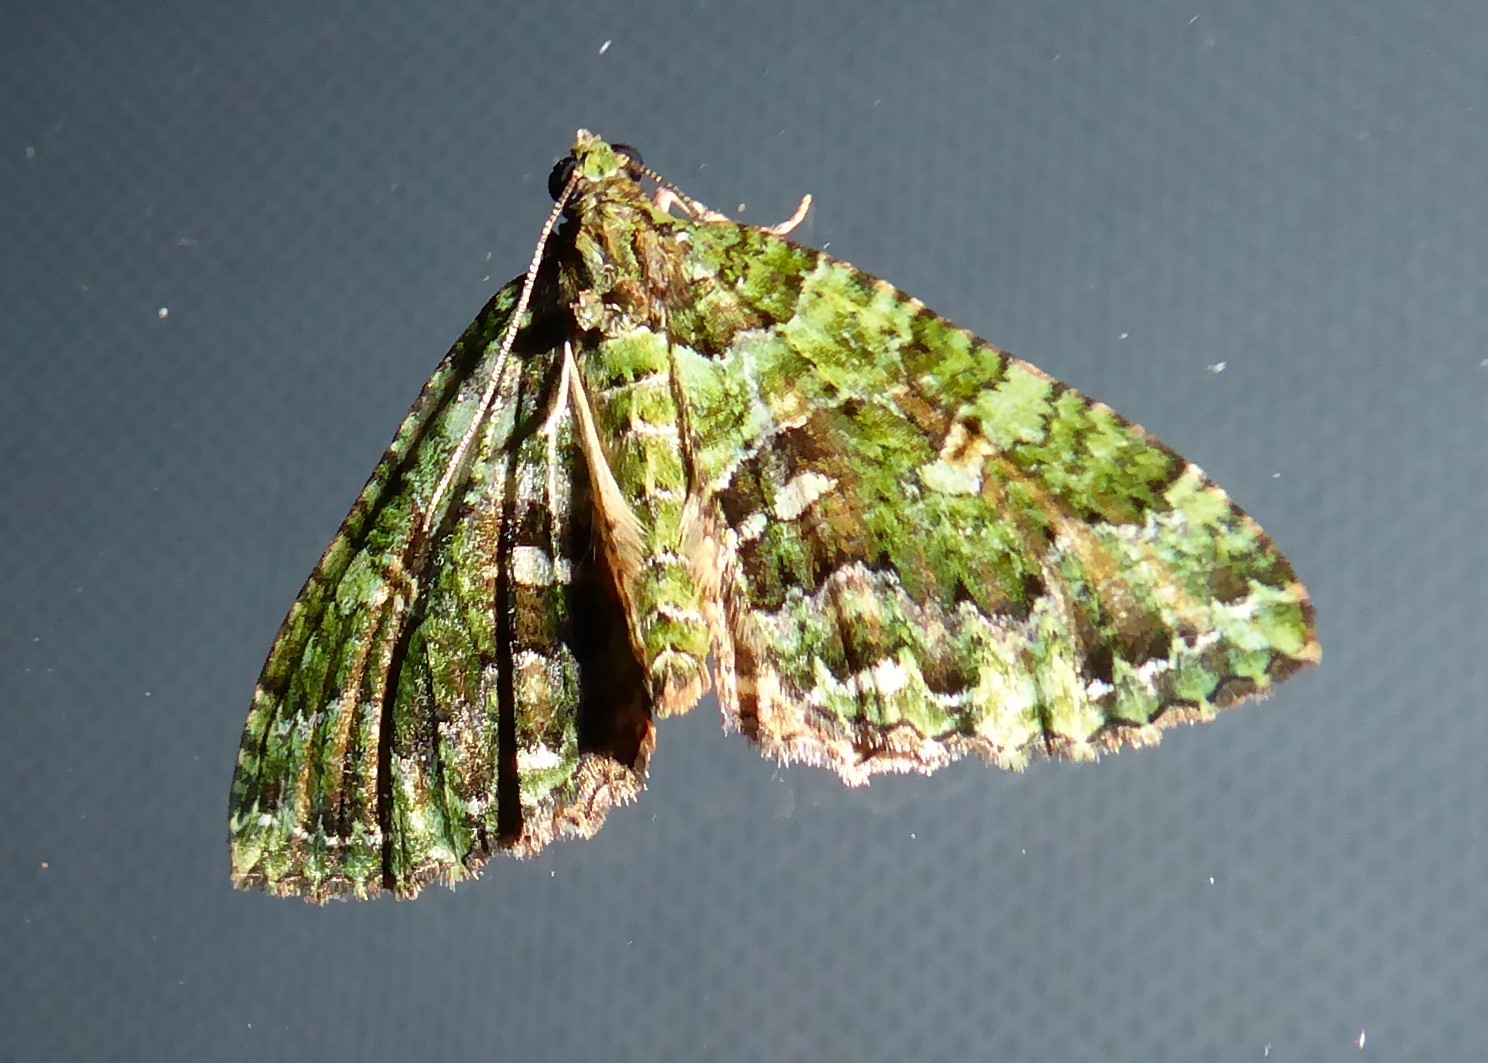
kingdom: Animalia
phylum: Arthropoda
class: Insecta
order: Lepidoptera
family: Geometridae
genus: Austrocidaria
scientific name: Austrocidaria similata
